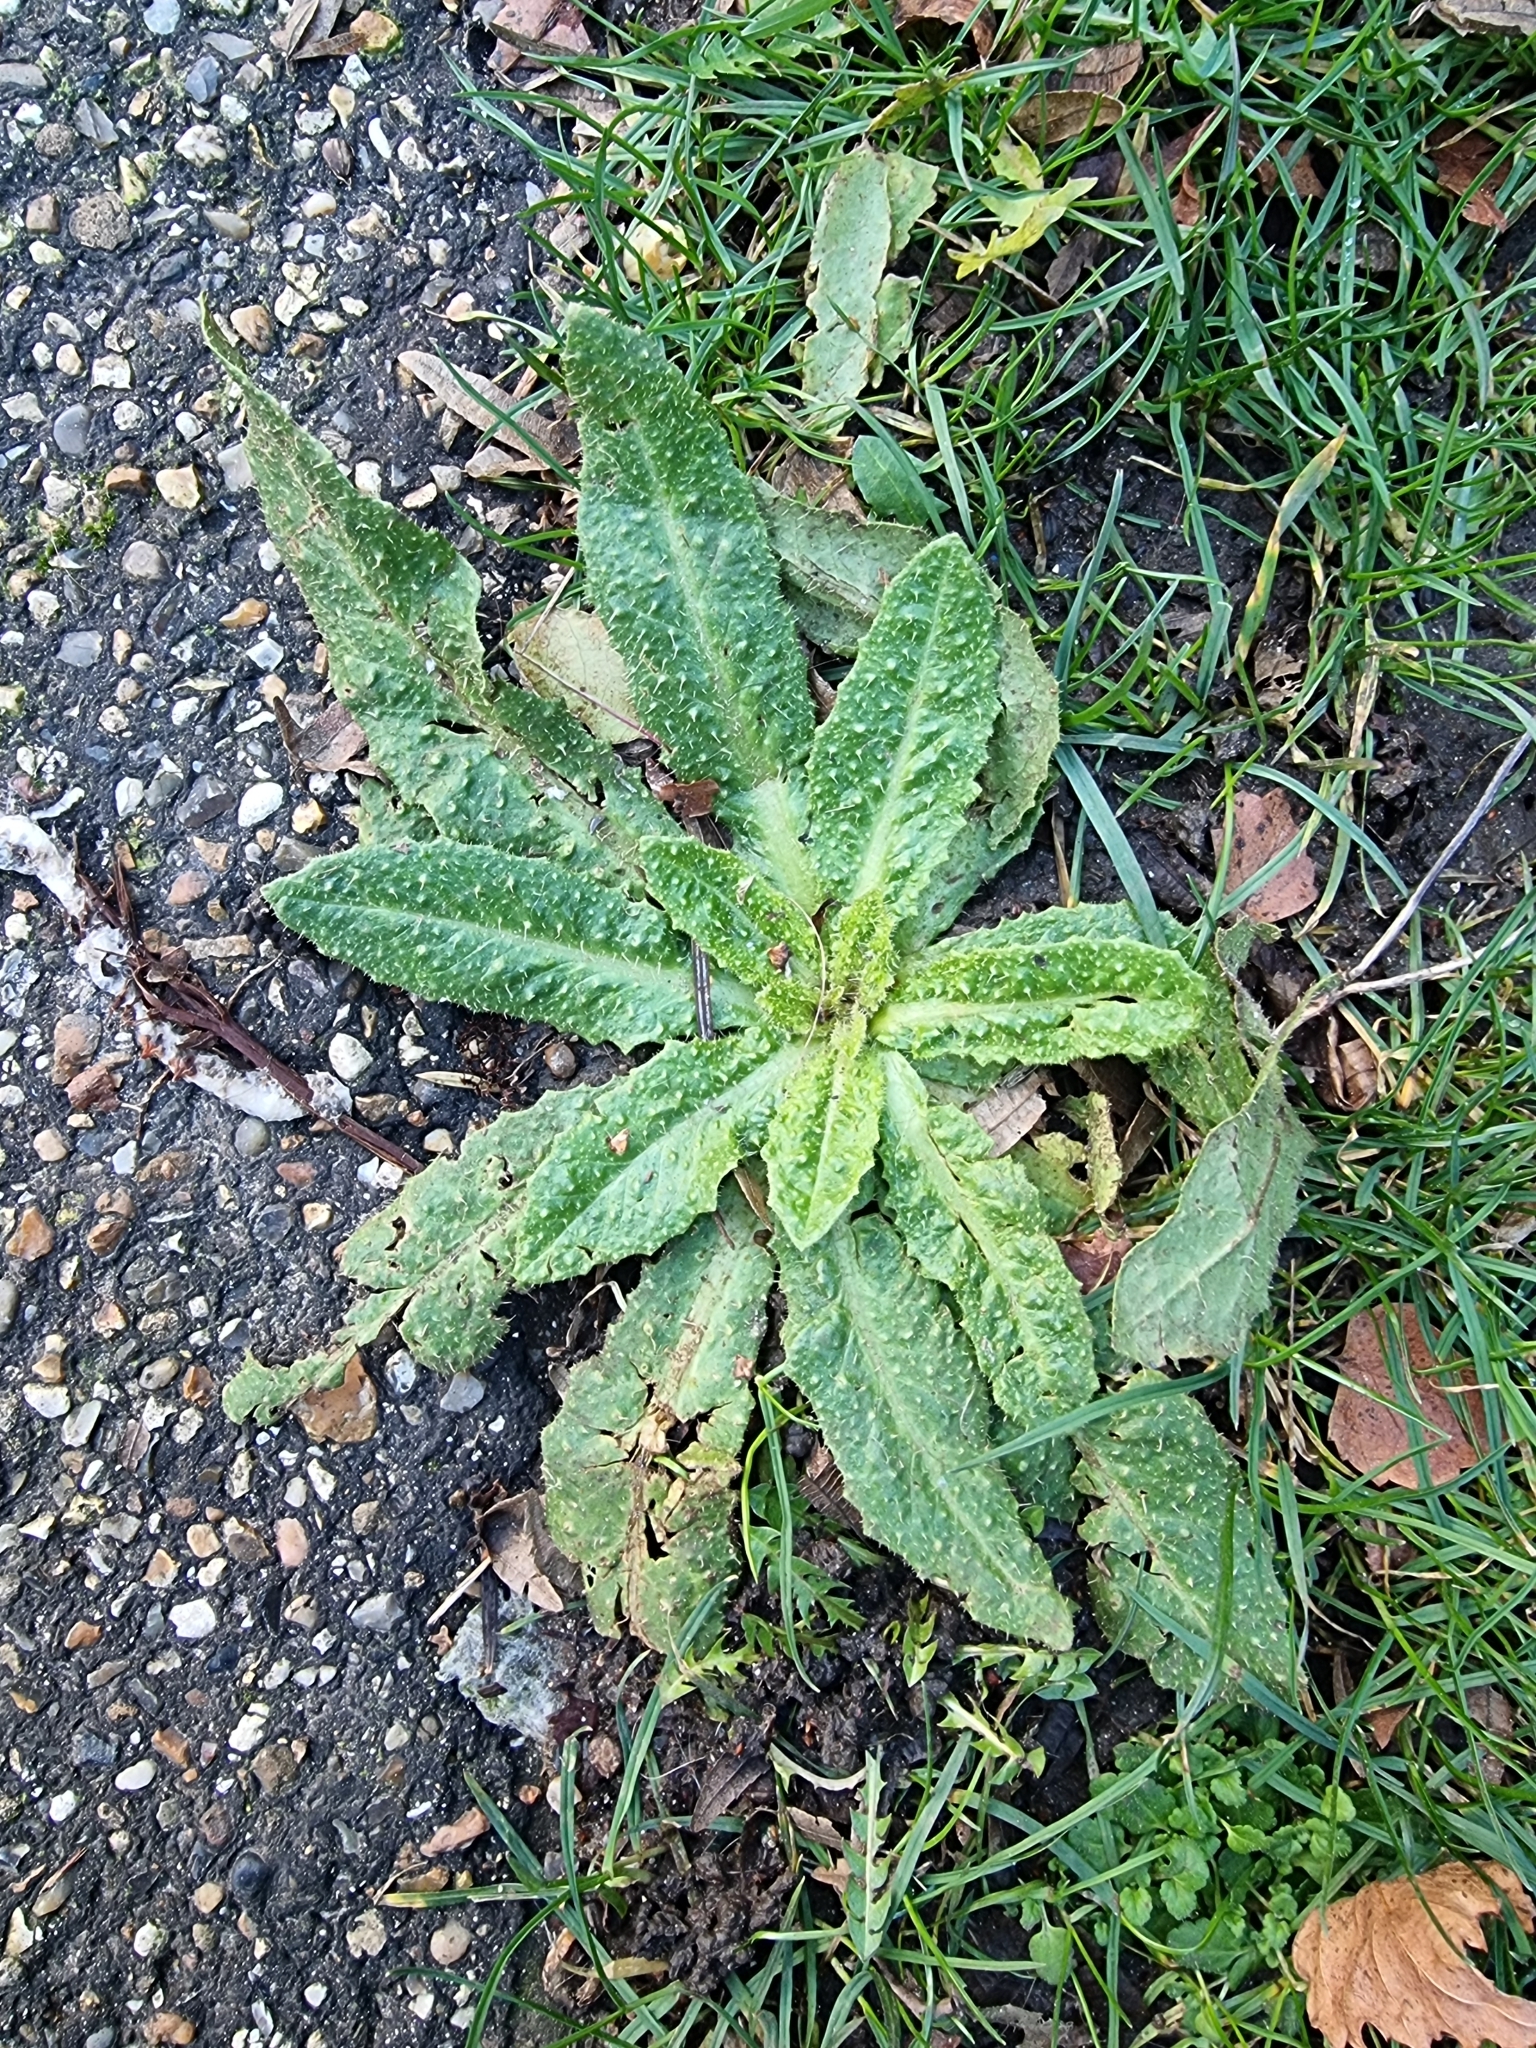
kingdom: Plantae
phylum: Tracheophyta
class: Magnoliopsida
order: Asterales
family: Asteraceae
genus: Helminthotheca
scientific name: Helminthotheca echioides
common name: Ox-tongue
